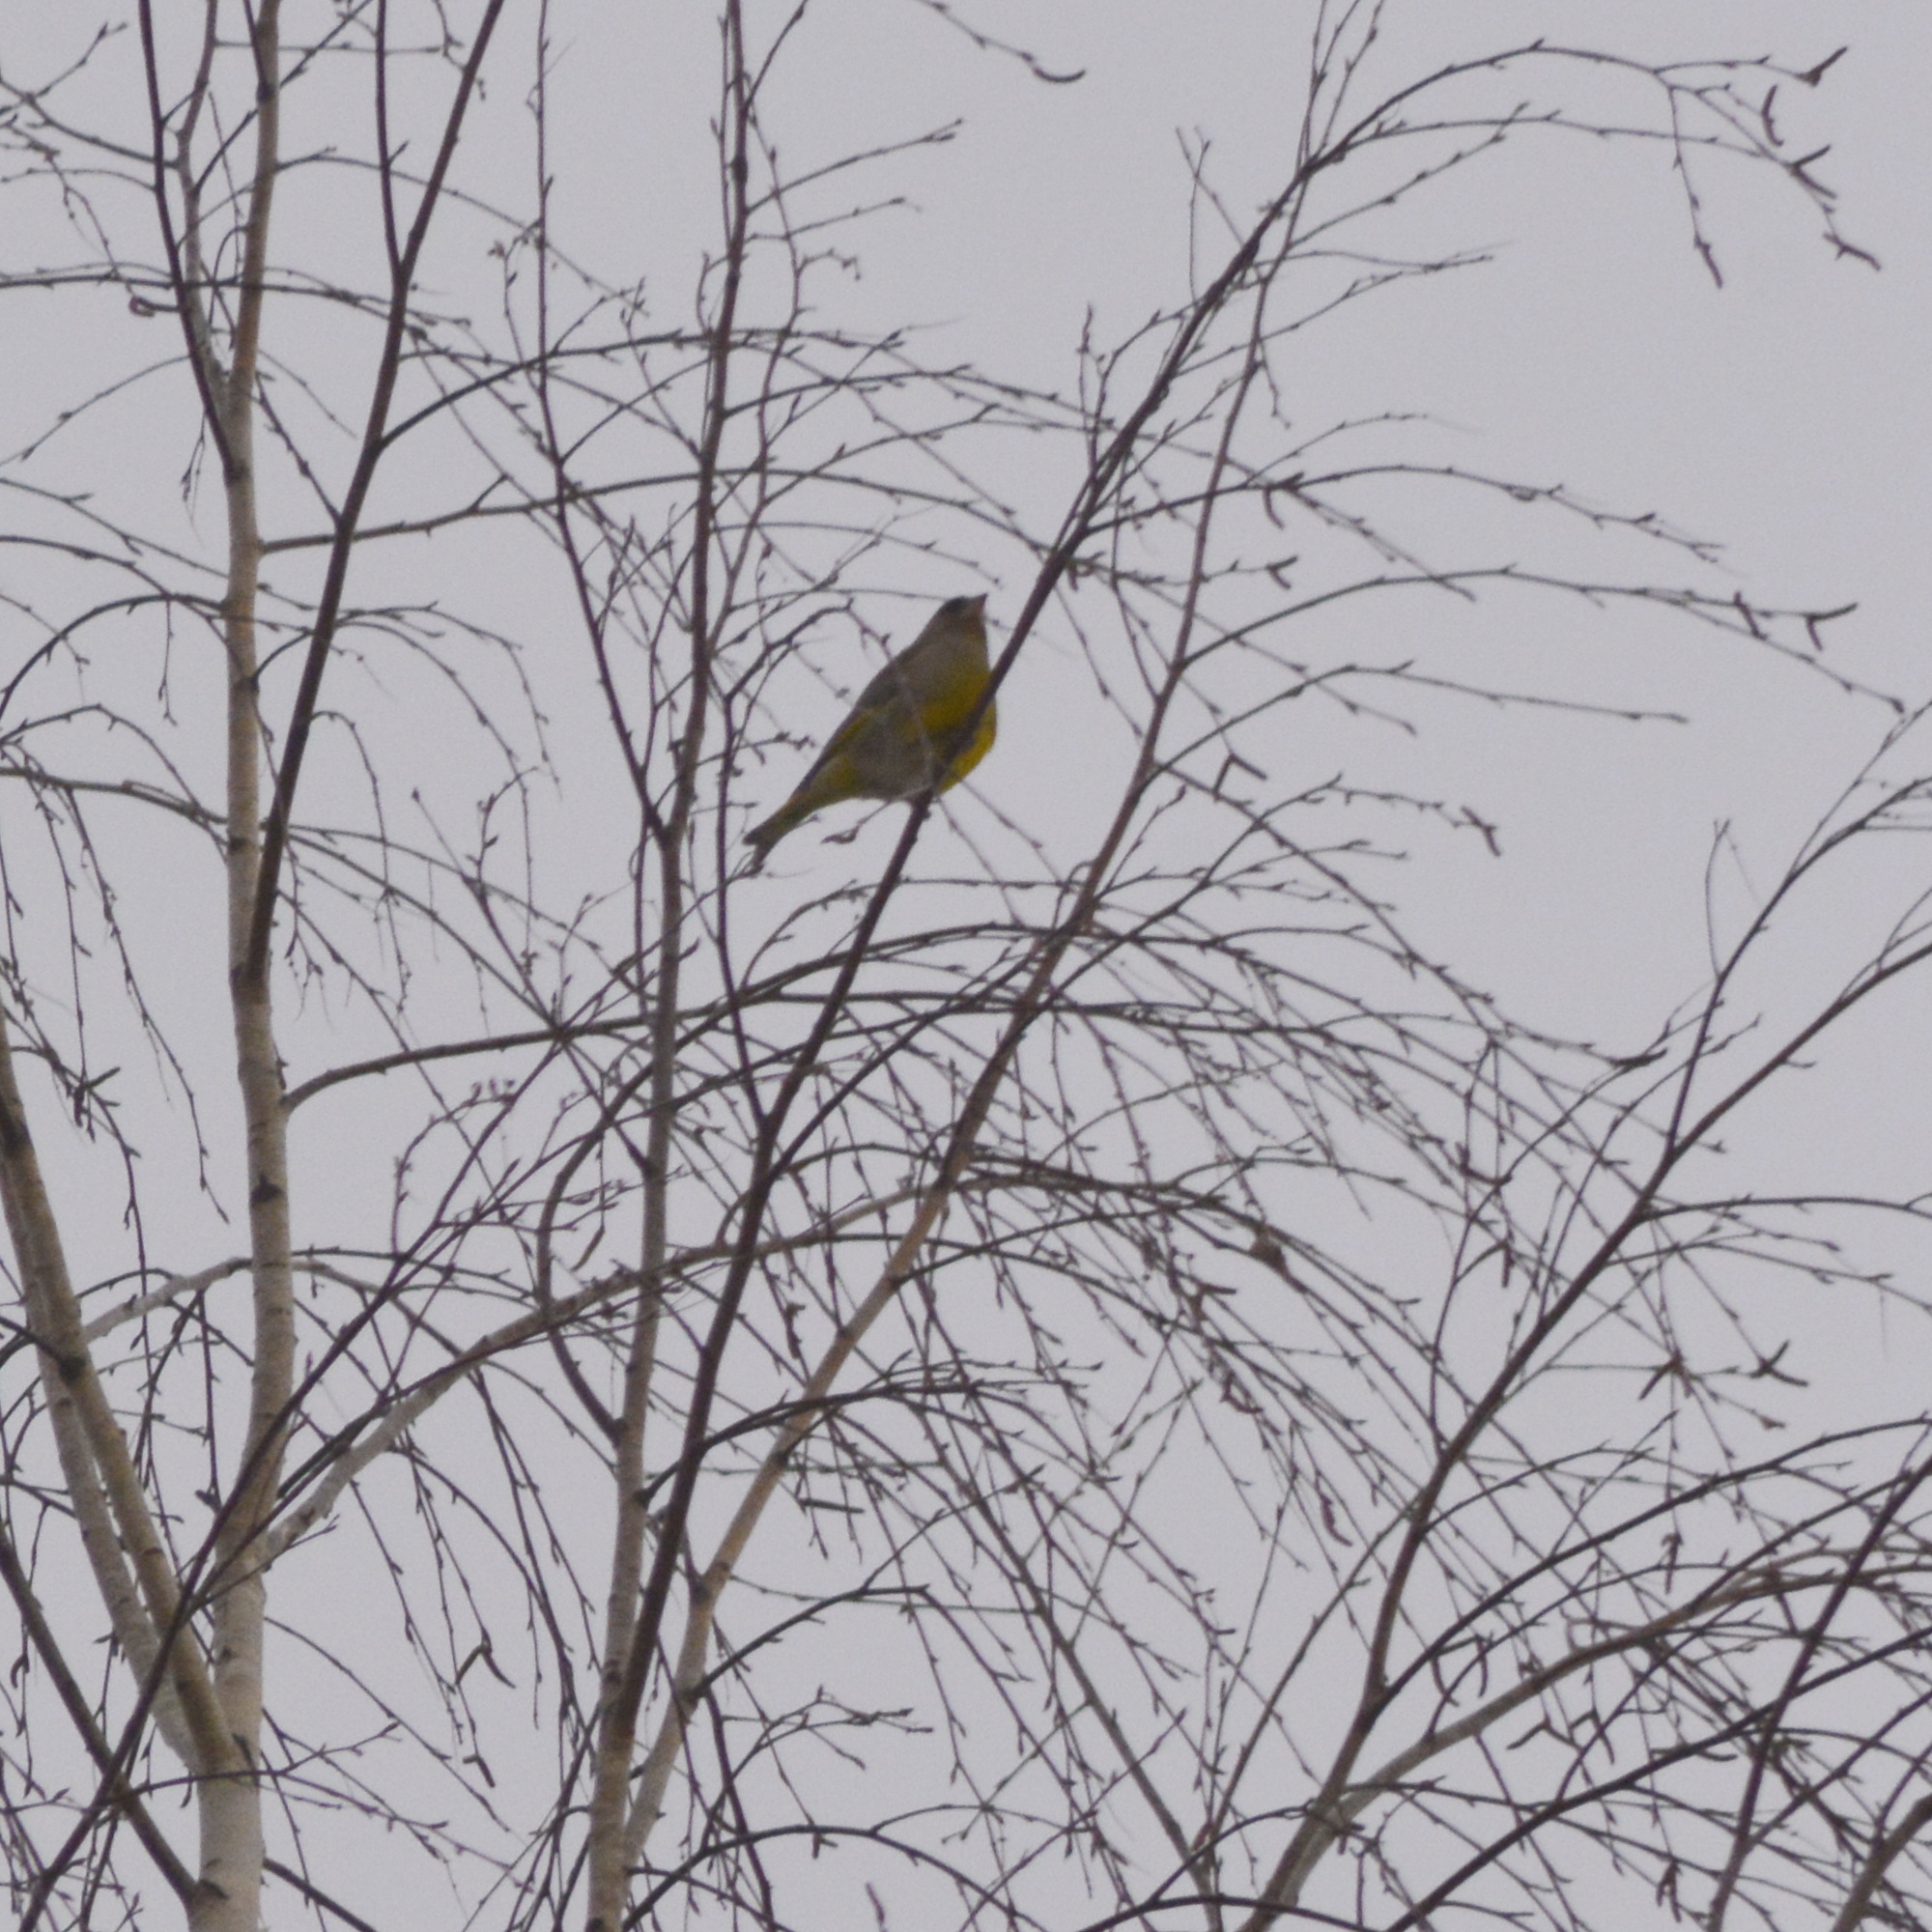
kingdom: Plantae
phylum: Tracheophyta
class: Liliopsida
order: Poales
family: Poaceae
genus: Chloris
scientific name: Chloris chloris
